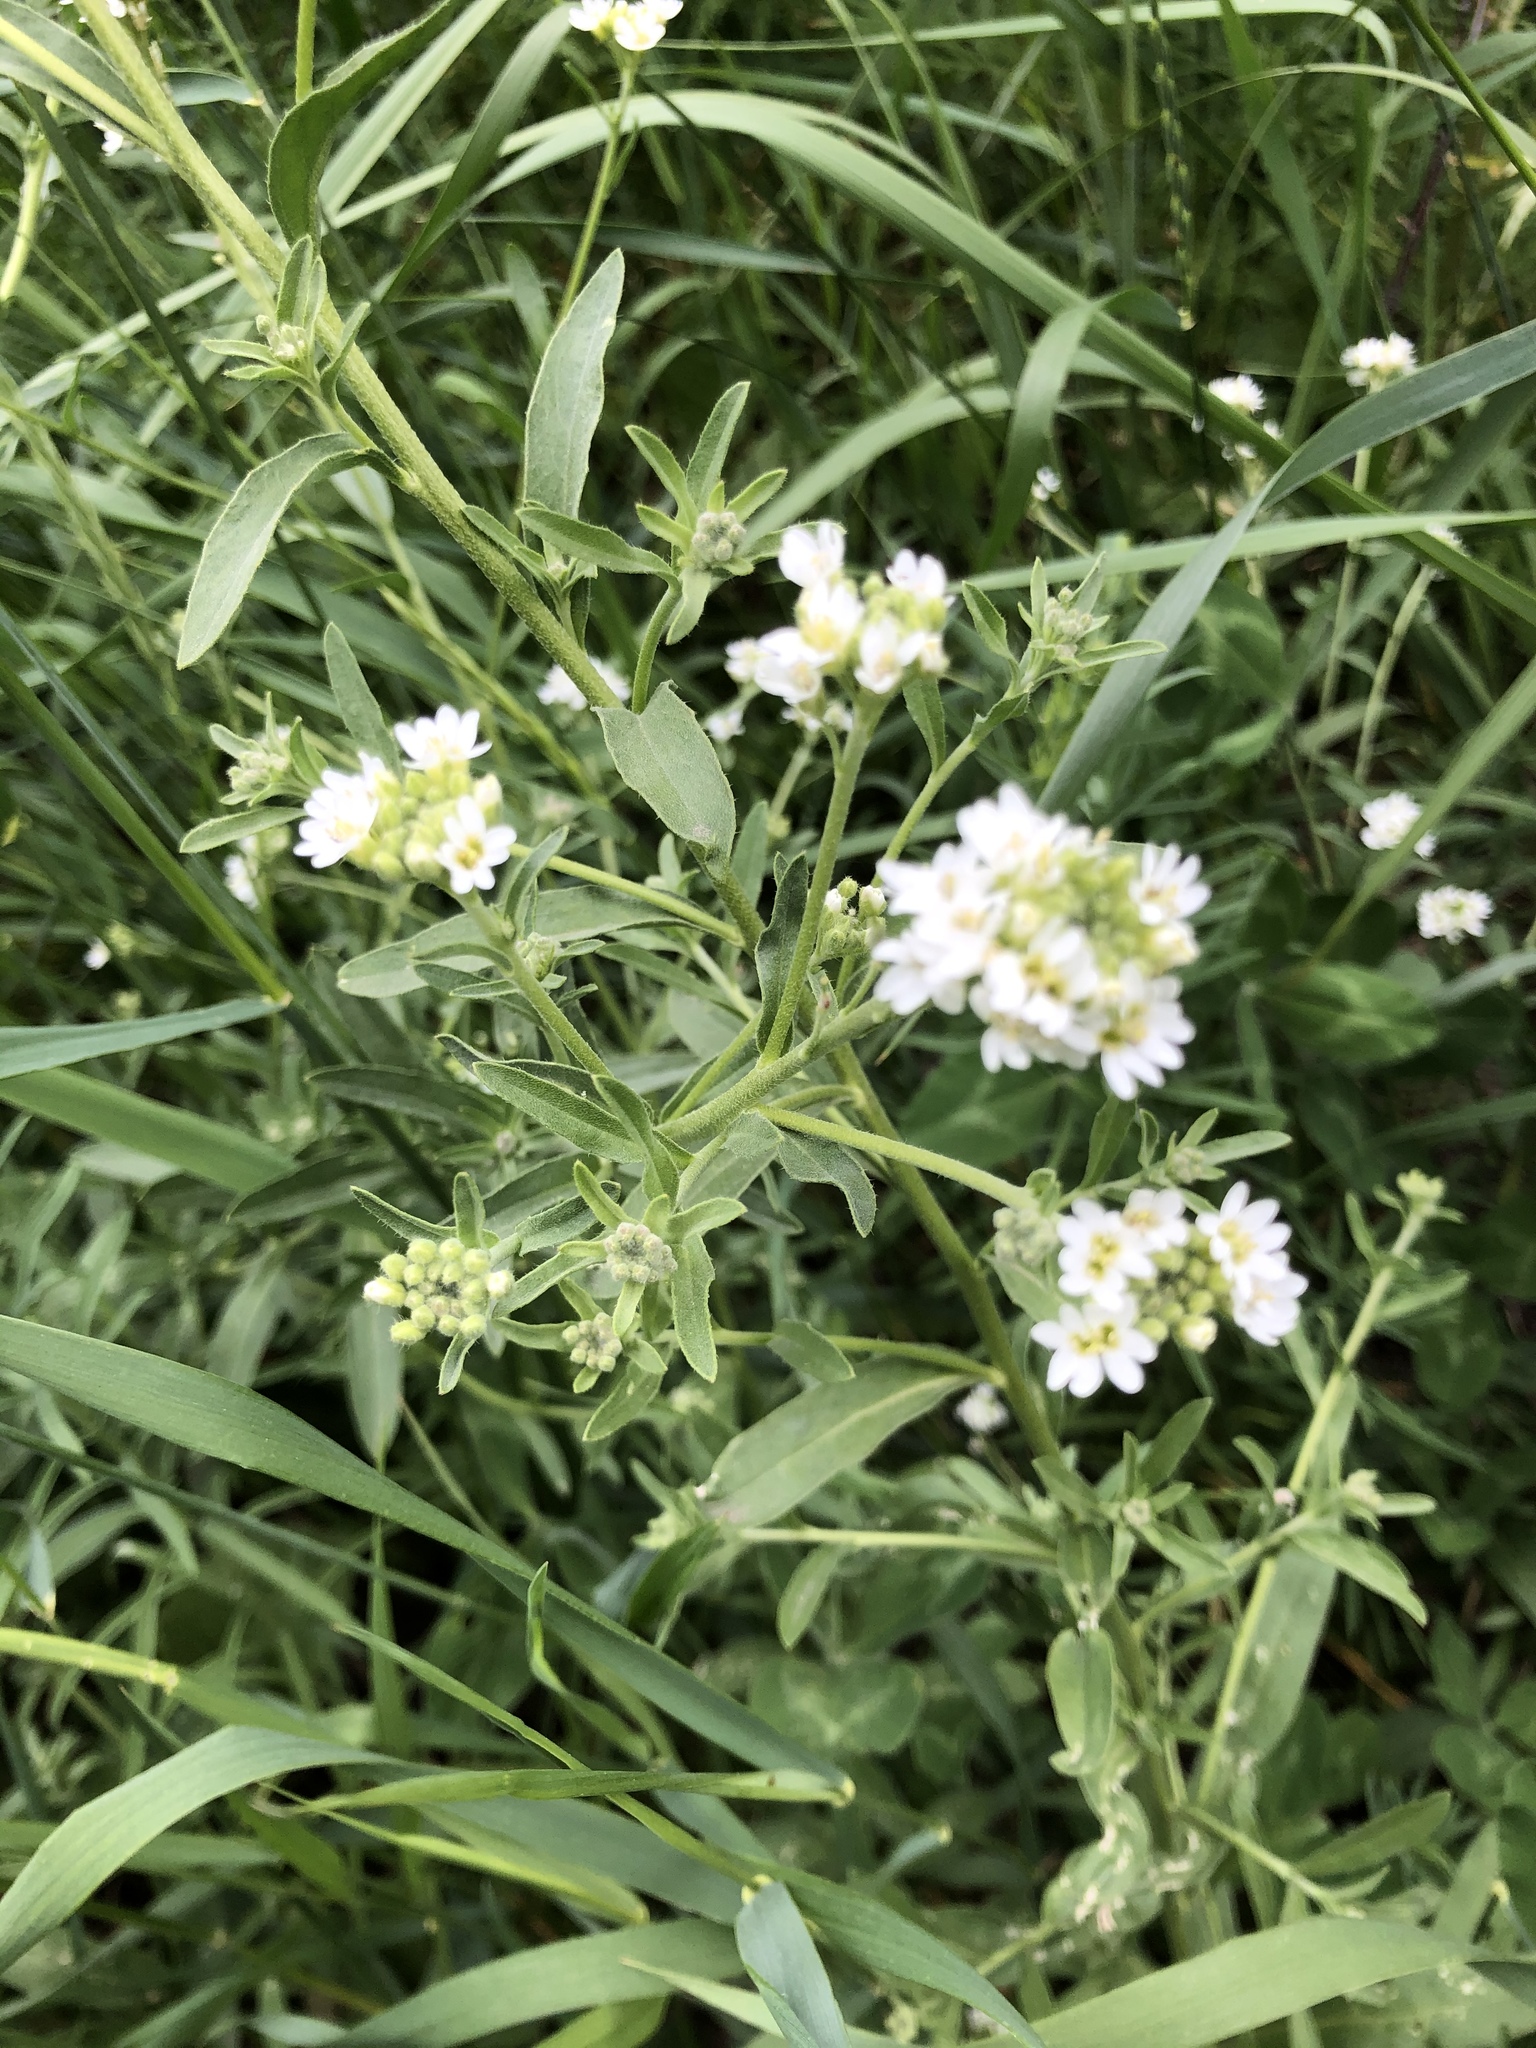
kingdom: Plantae
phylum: Tracheophyta
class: Magnoliopsida
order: Brassicales
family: Brassicaceae
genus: Berteroa
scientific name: Berteroa incana
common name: Hoary alison
